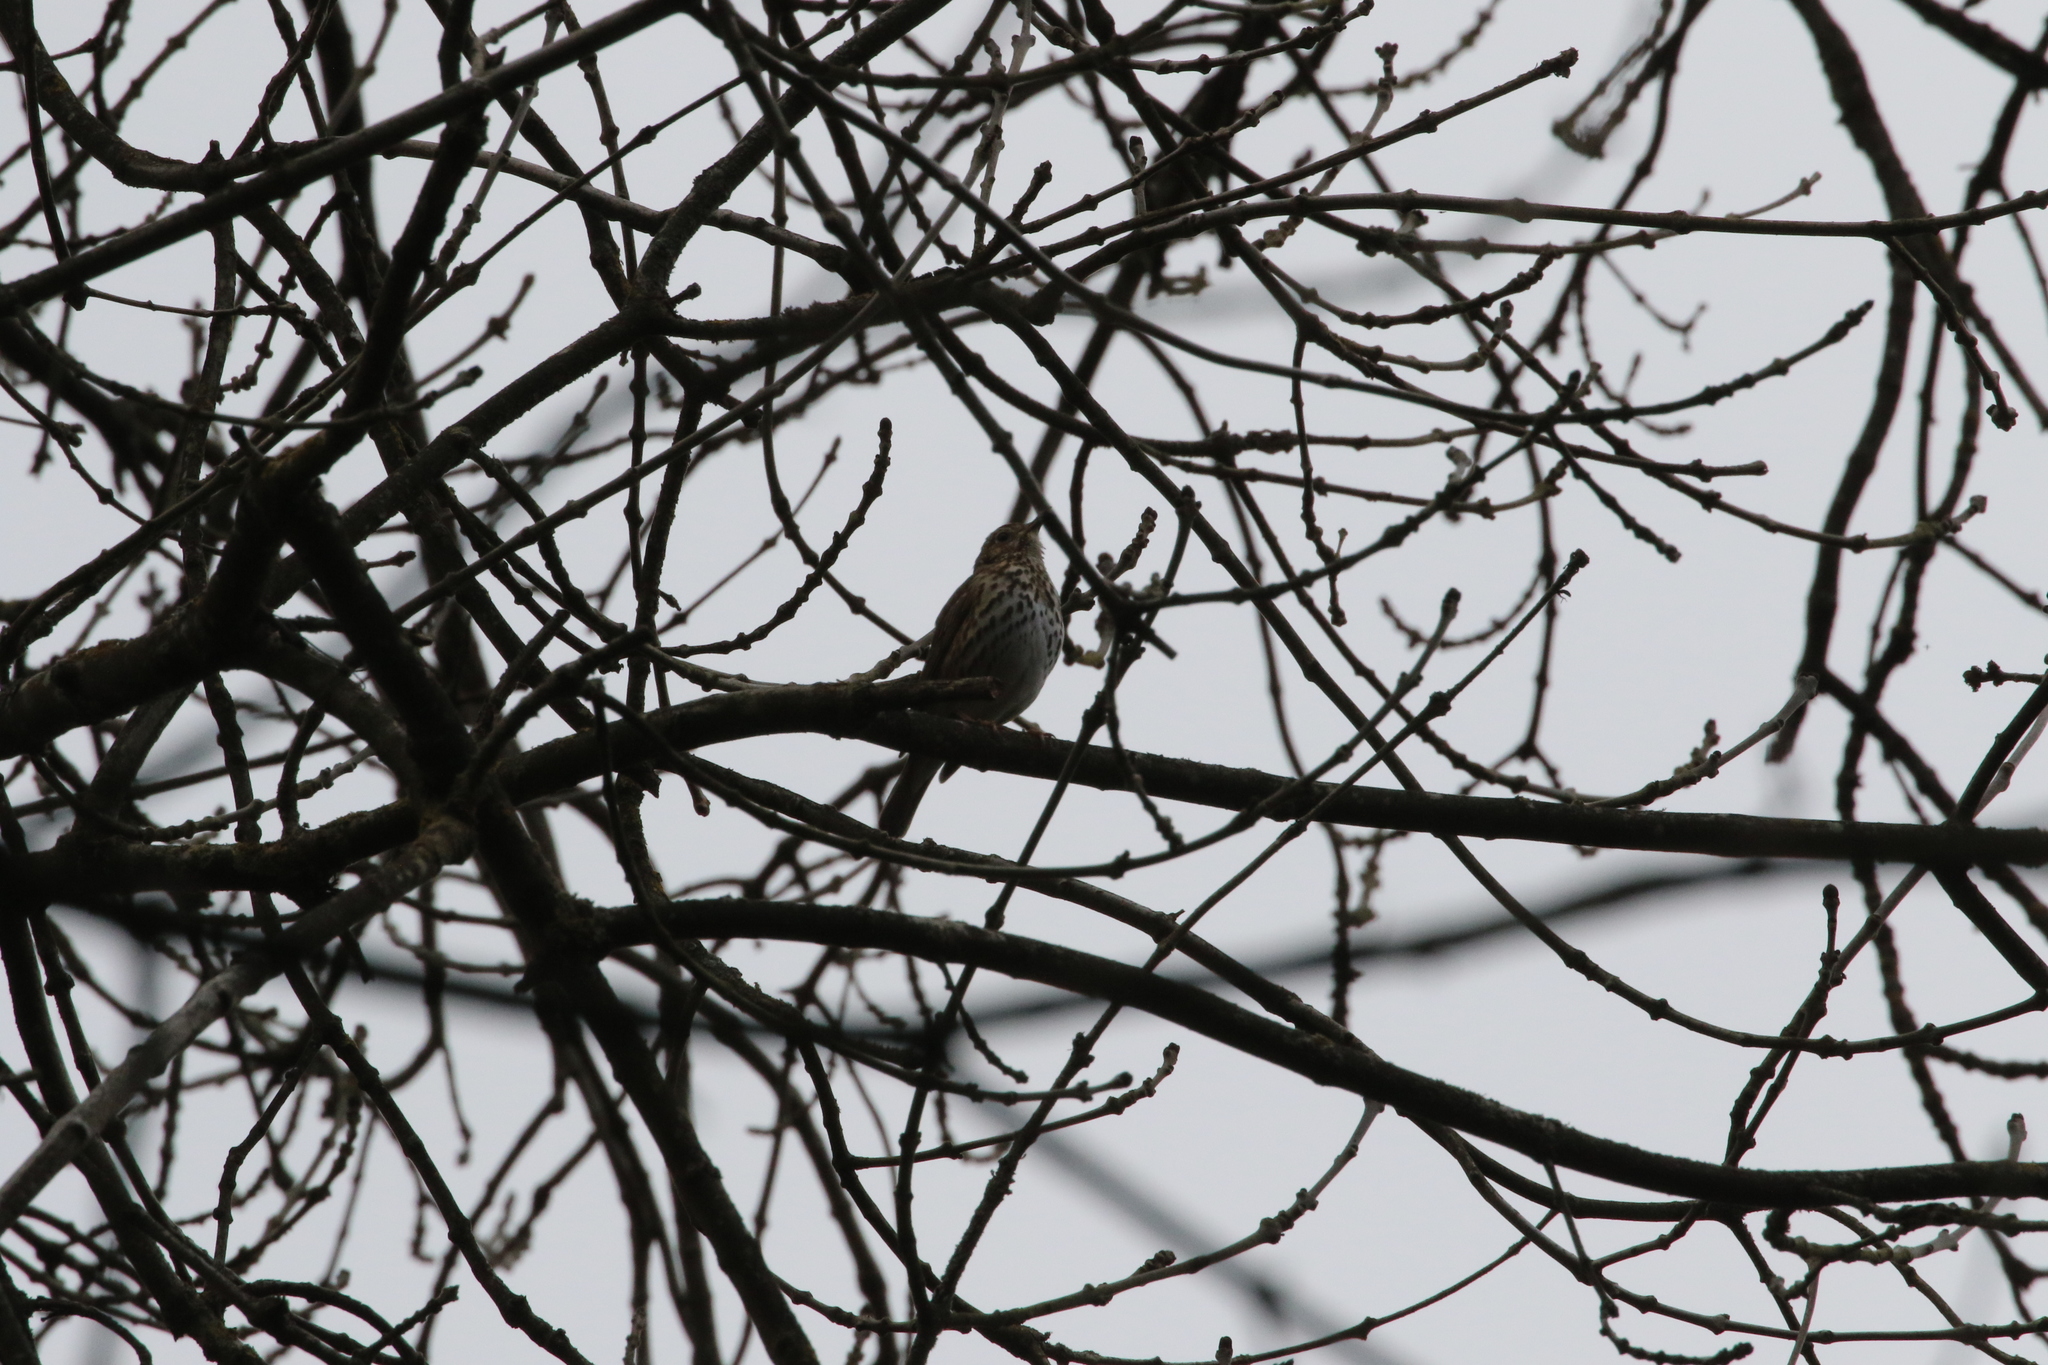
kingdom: Animalia
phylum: Chordata
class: Aves
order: Passeriformes
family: Turdidae
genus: Turdus
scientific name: Turdus philomelos
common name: Song thrush
